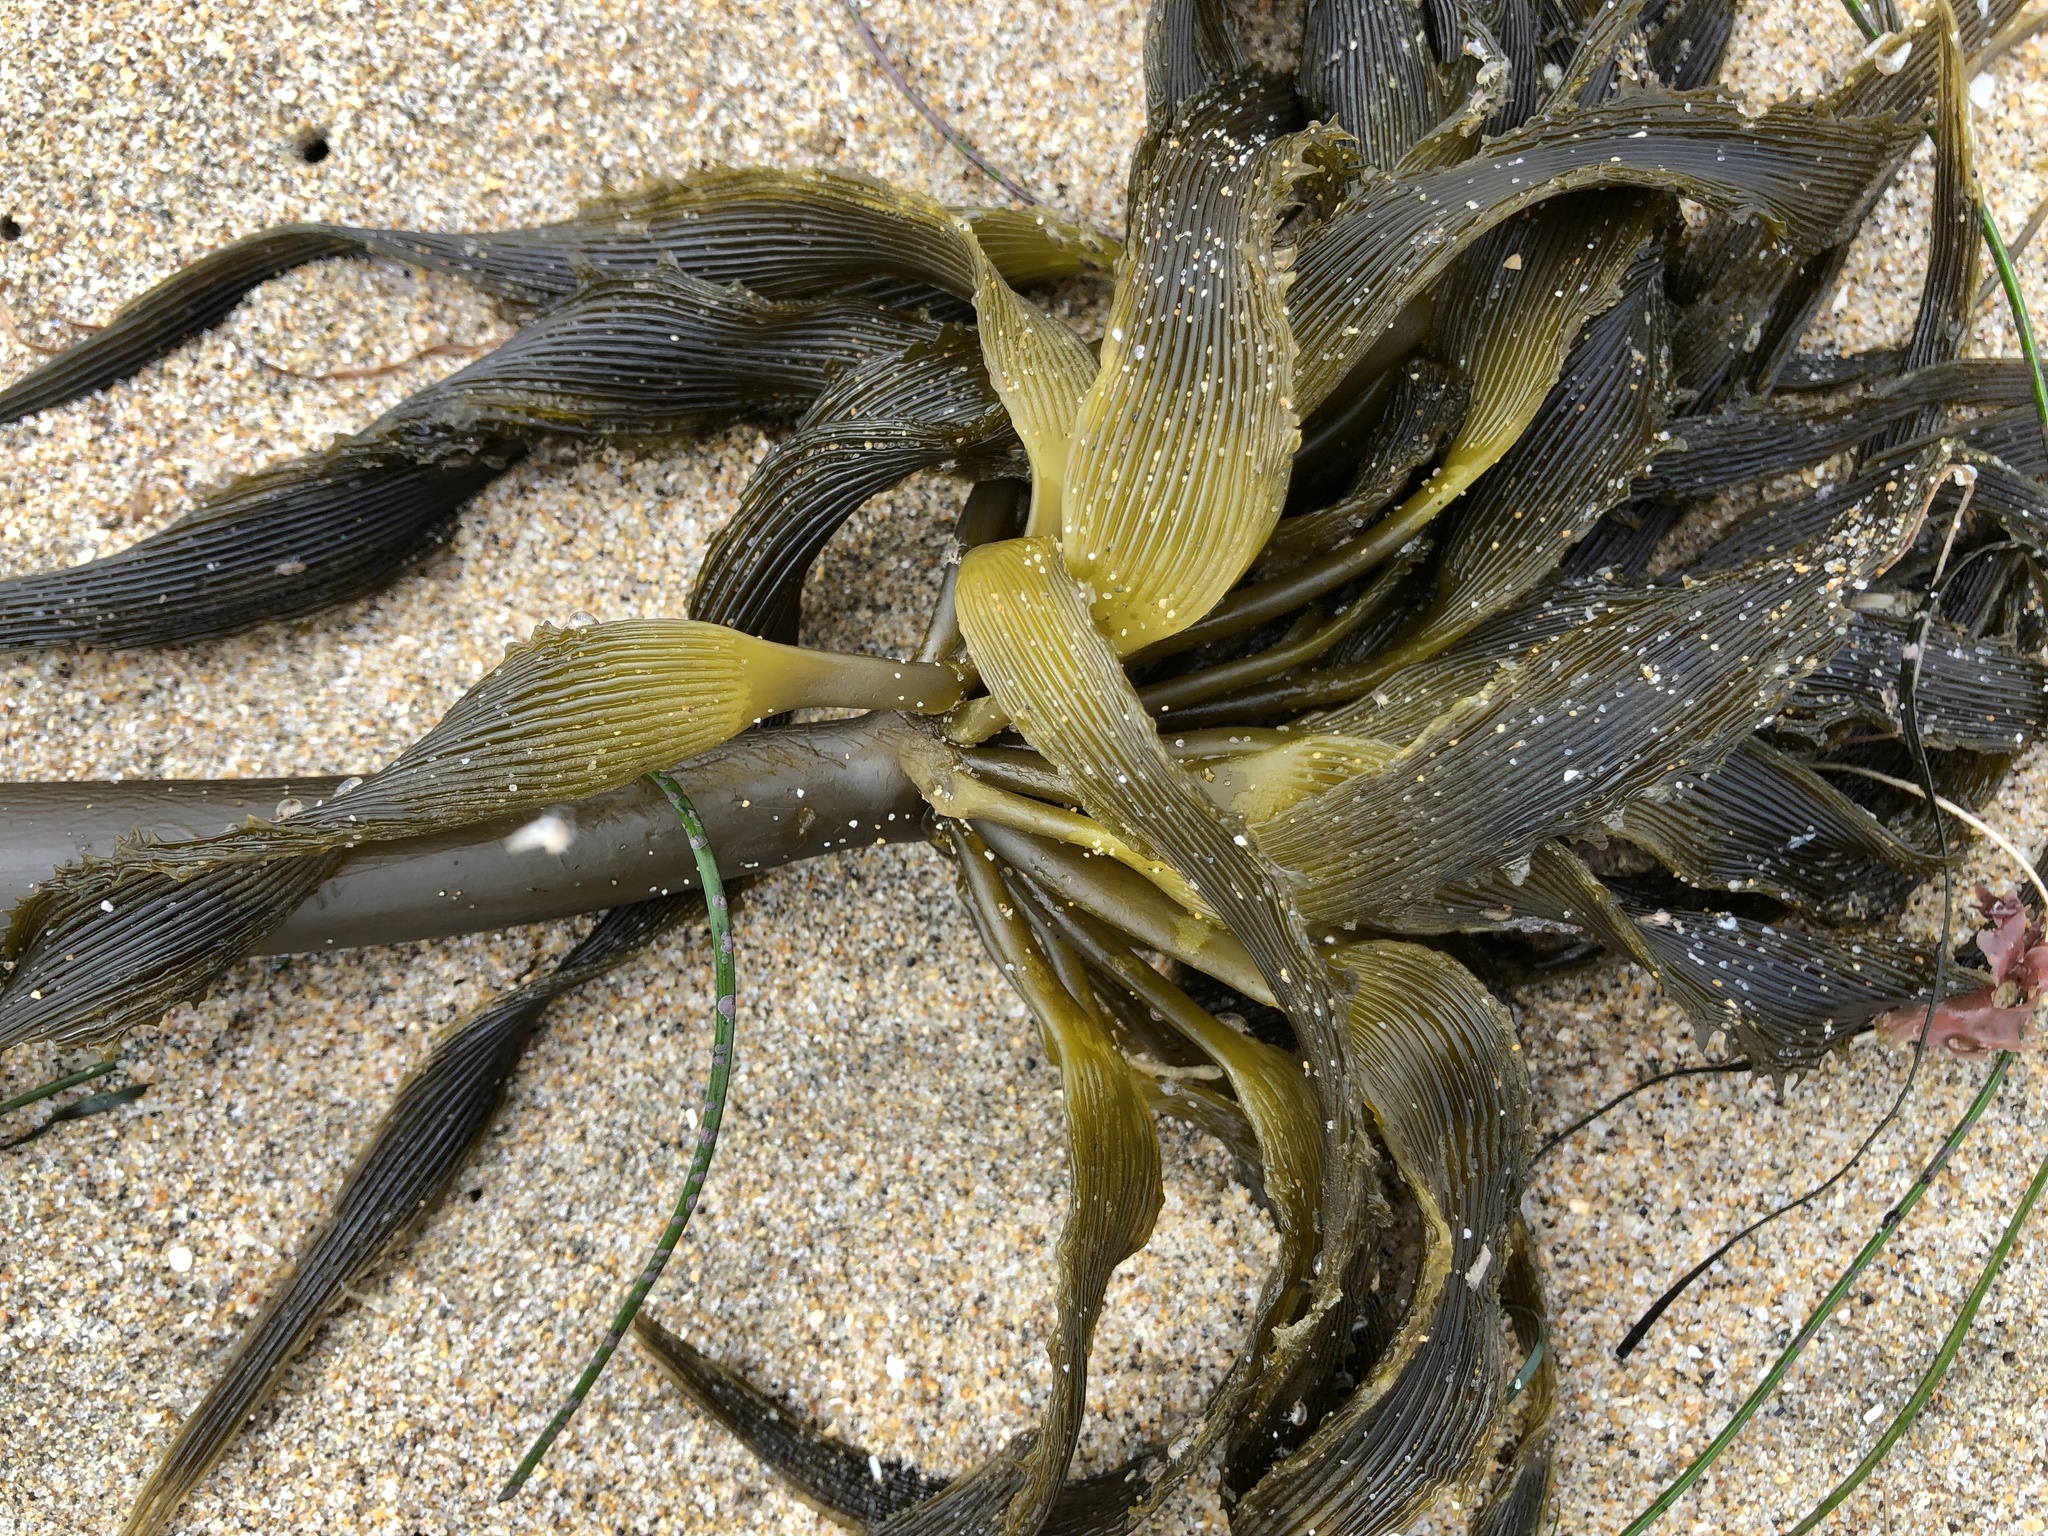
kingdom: Chromista
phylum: Ochrophyta
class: Phaeophyceae
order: Laminariales
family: Laminariaceae
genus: Postelsia
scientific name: Postelsia palmiformis
